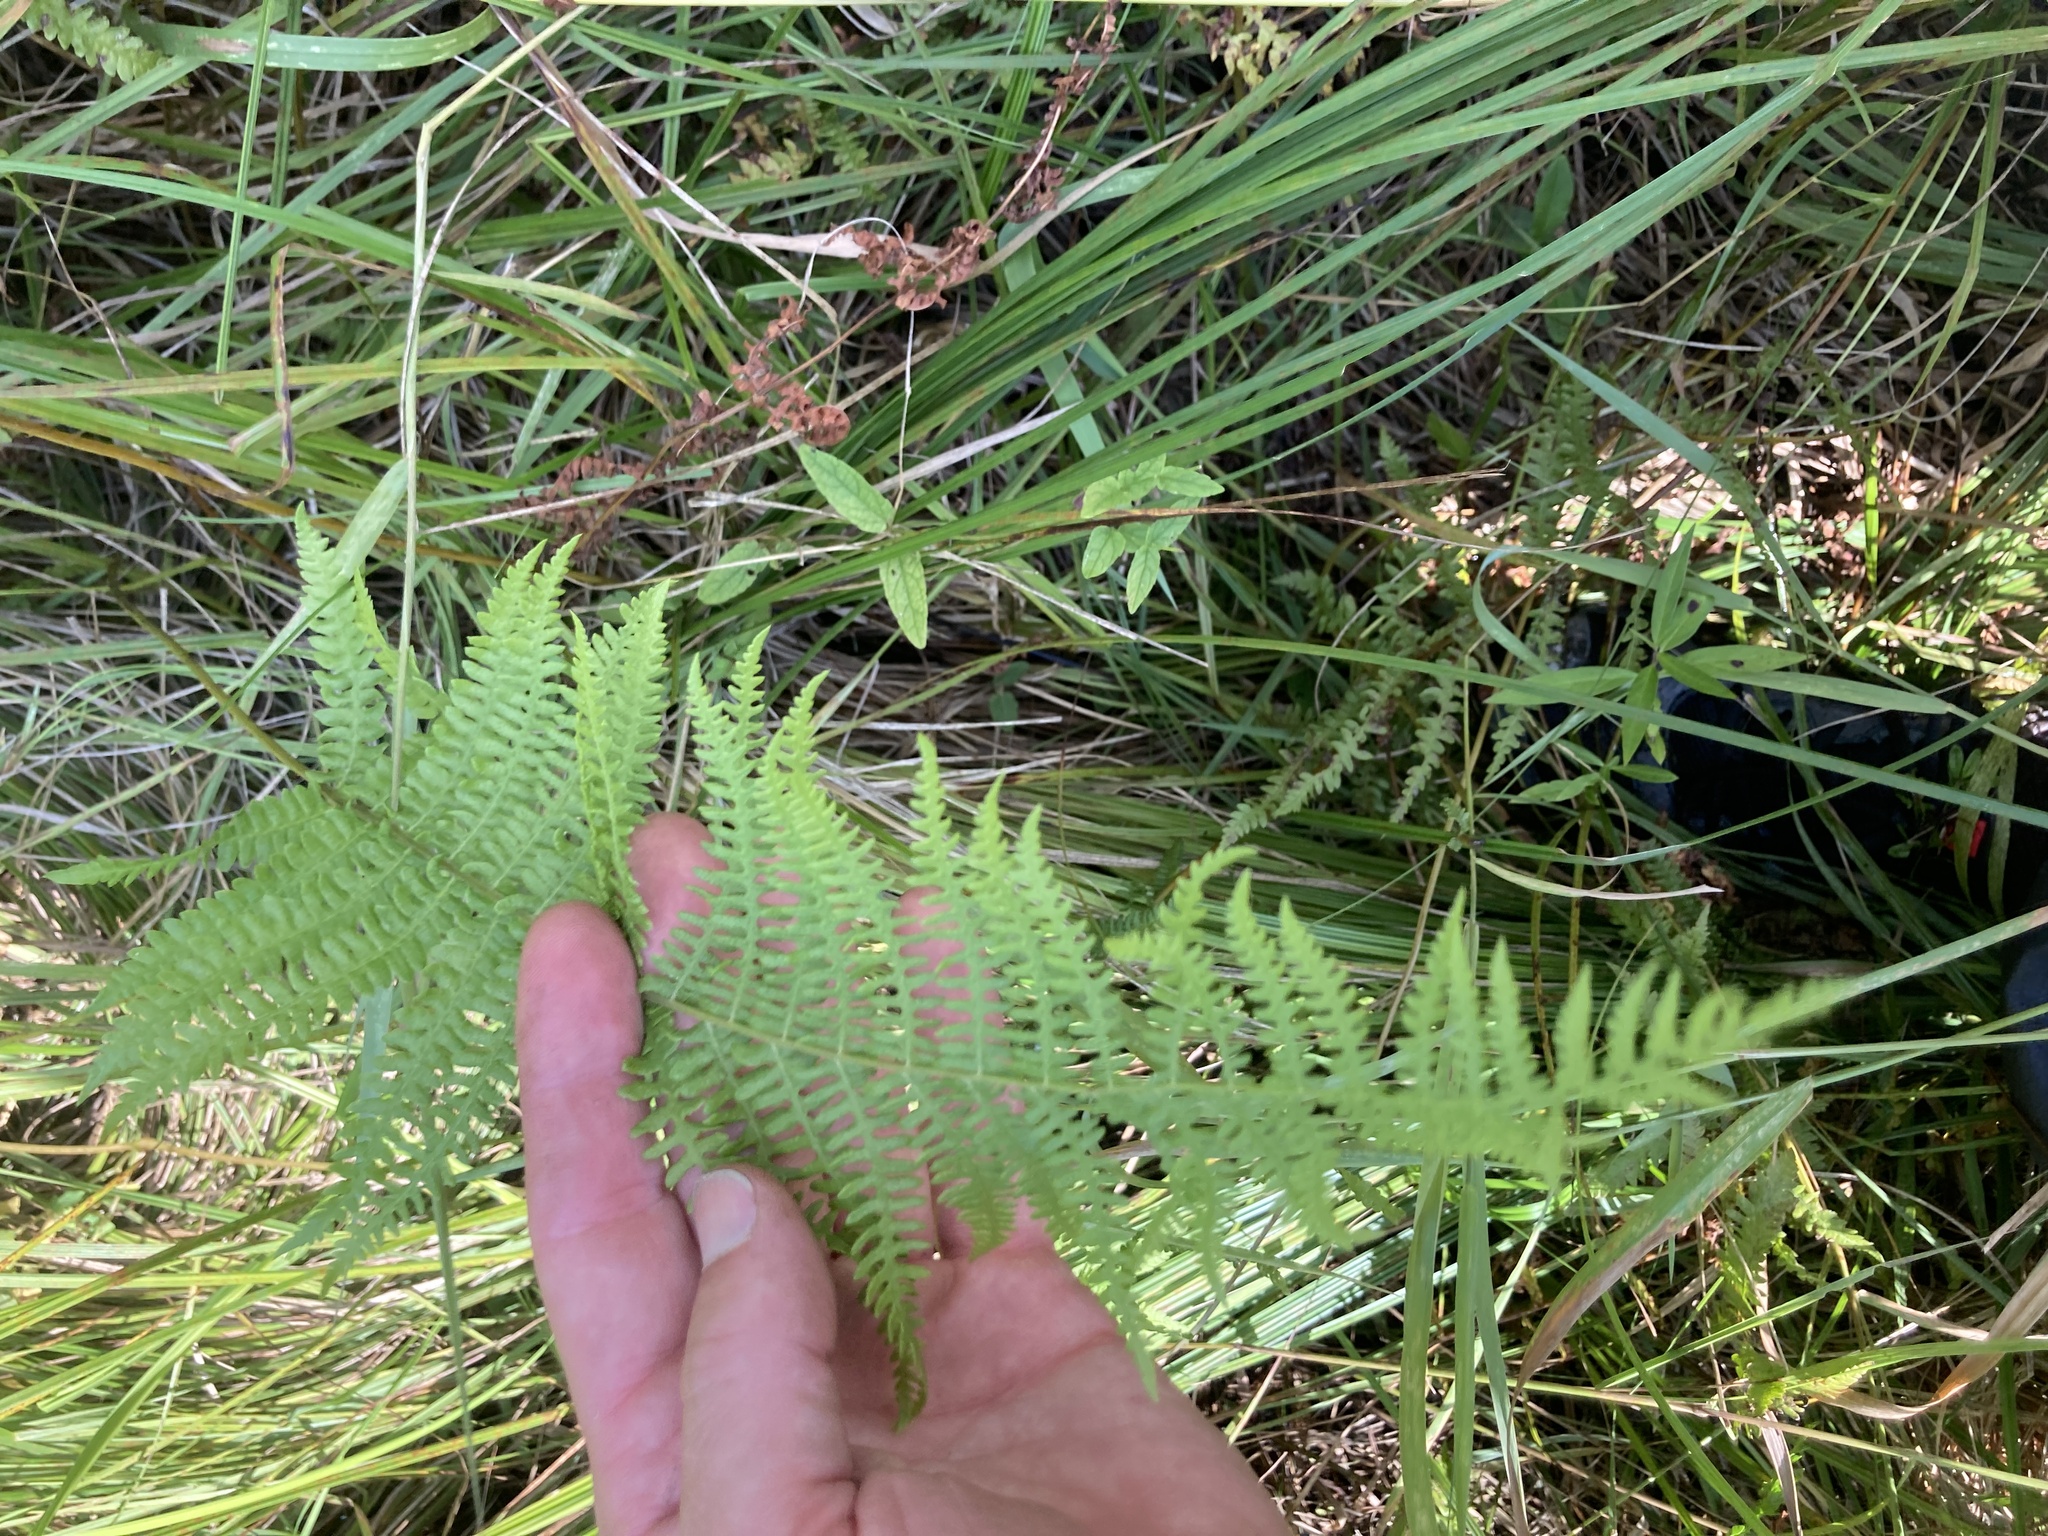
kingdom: Plantae
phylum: Tracheophyta
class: Polypodiopsida
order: Polypodiales
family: Thelypteridaceae
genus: Thelypteris
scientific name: Thelypteris palustris
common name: Marsh fern
